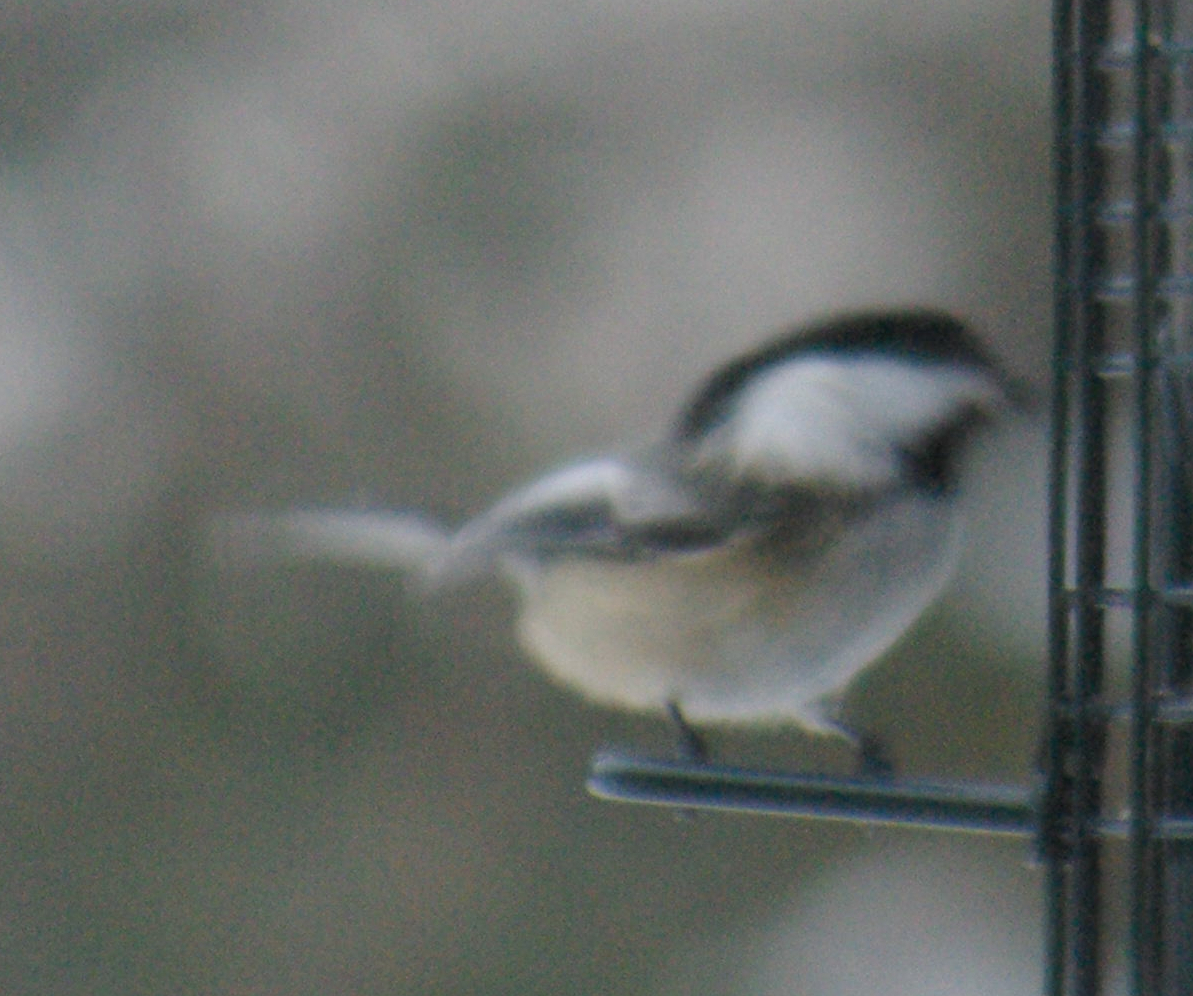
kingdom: Animalia
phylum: Chordata
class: Aves
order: Passeriformes
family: Paridae
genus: Poecile
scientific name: Poecile atricapillus
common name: Black-capped chickadee
